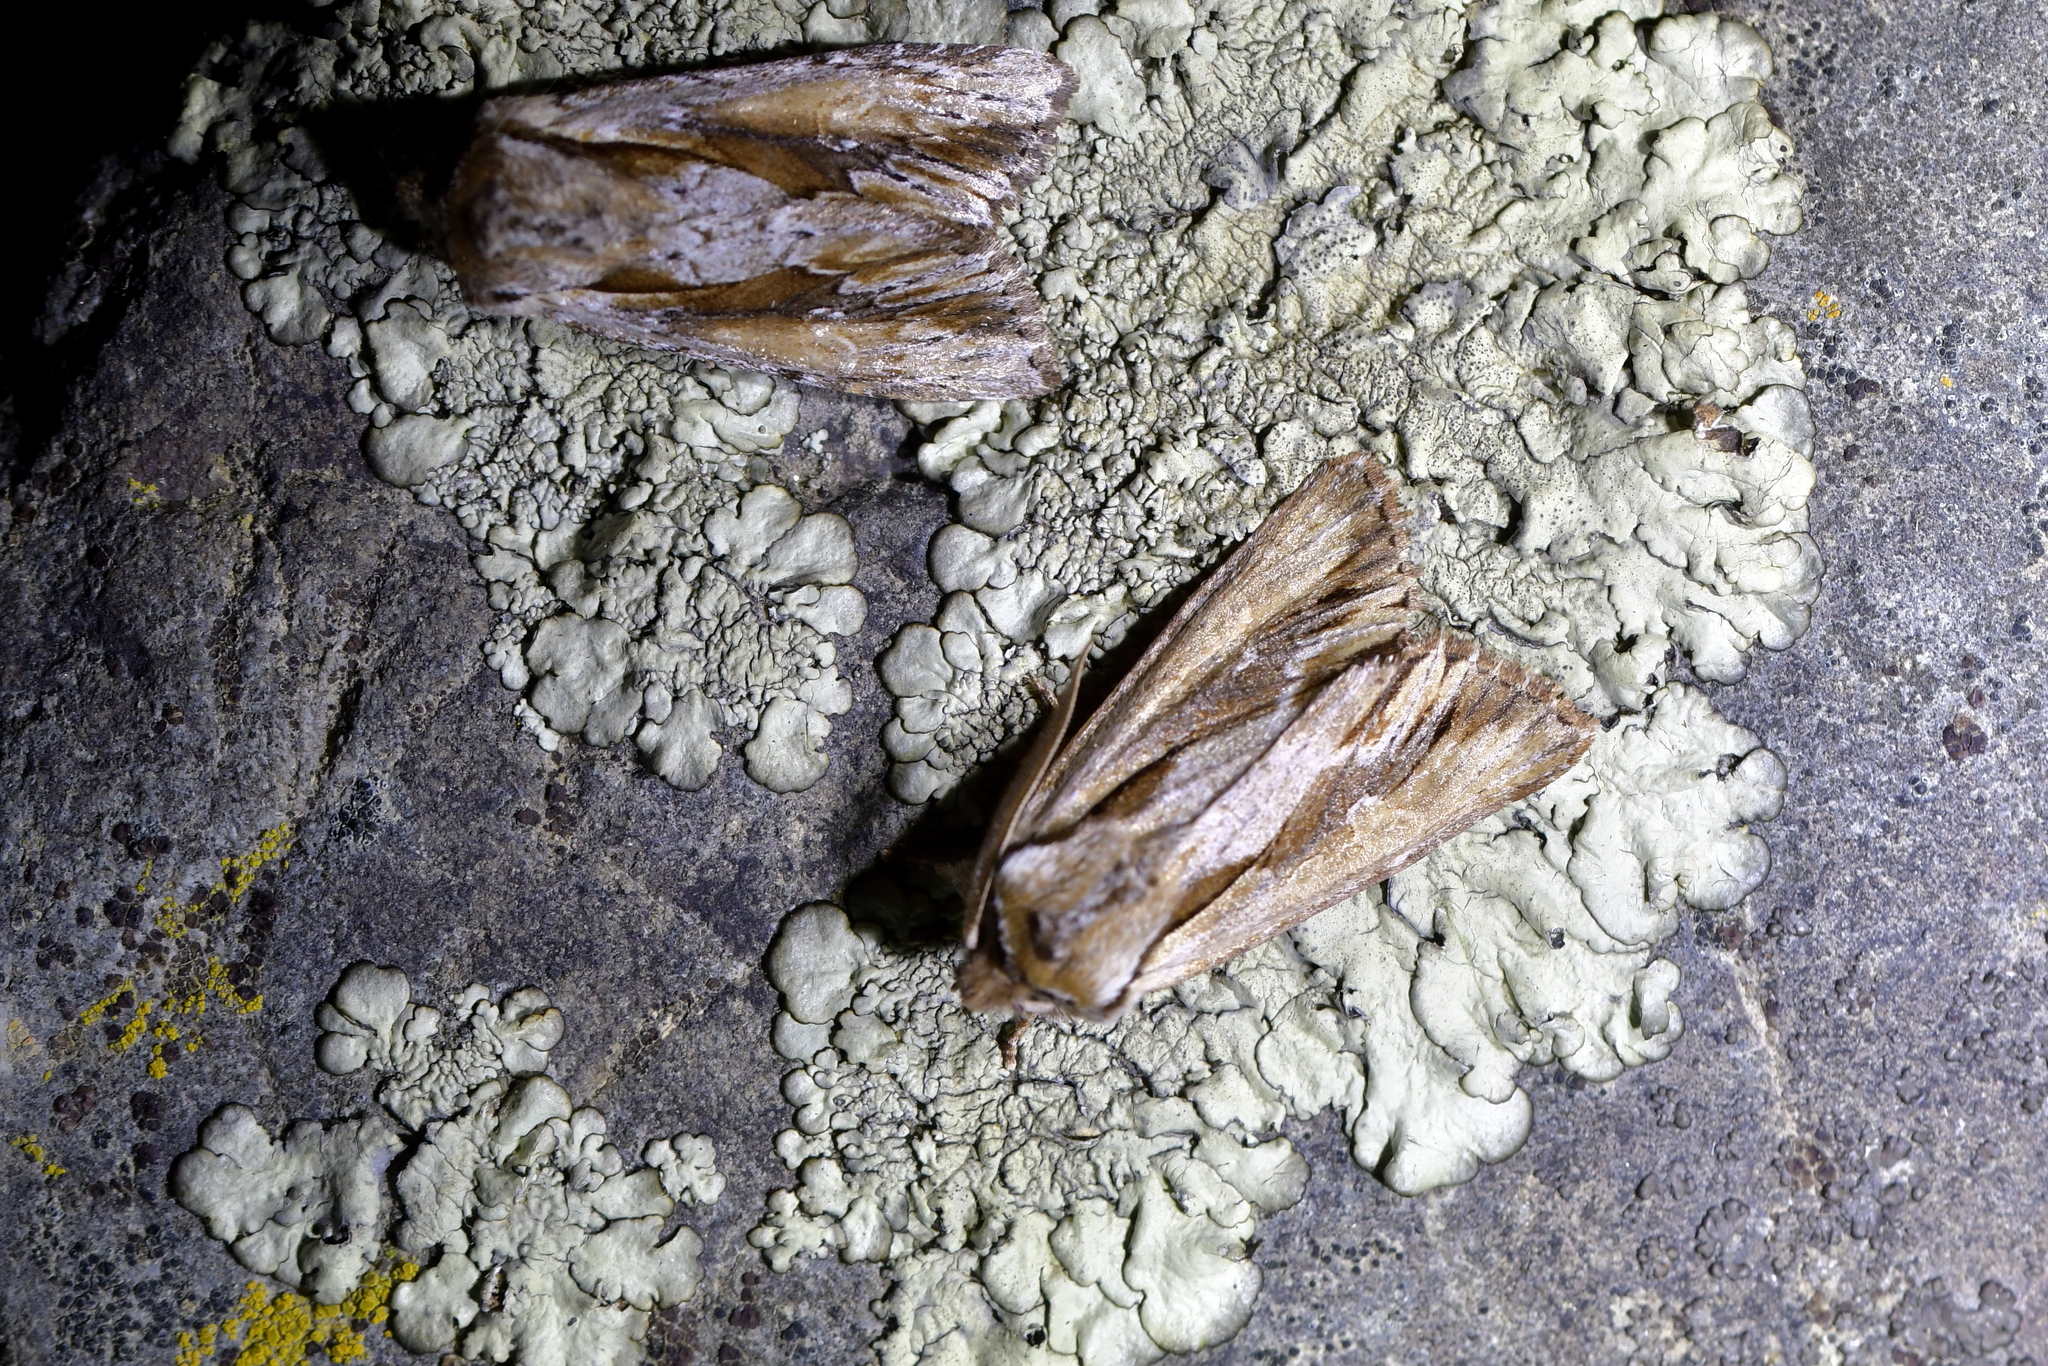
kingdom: Animalia
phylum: Arthropoda
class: Insecta
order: Lepidoptera
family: Noctuidae
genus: Ichneutica
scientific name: Ichneutica
